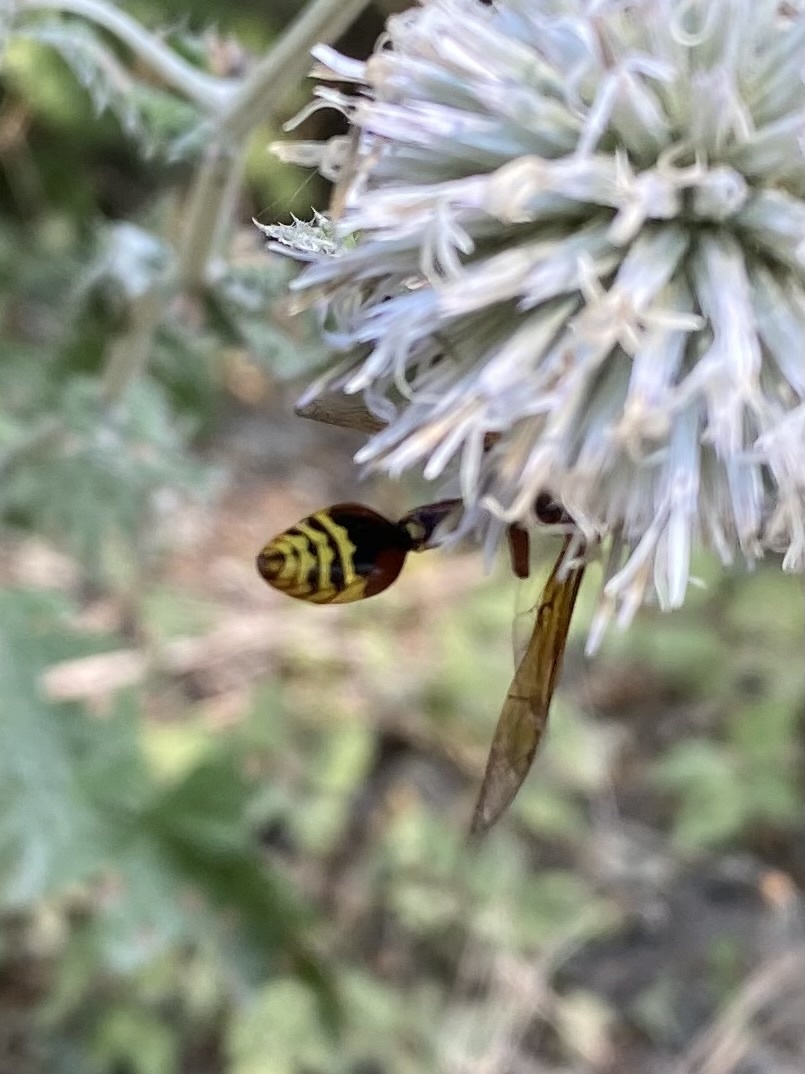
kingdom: Animalia
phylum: Arthropoda
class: Insecta
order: Hymenoptera
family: Eumenidae
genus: Delta
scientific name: Delta unguiculatum
